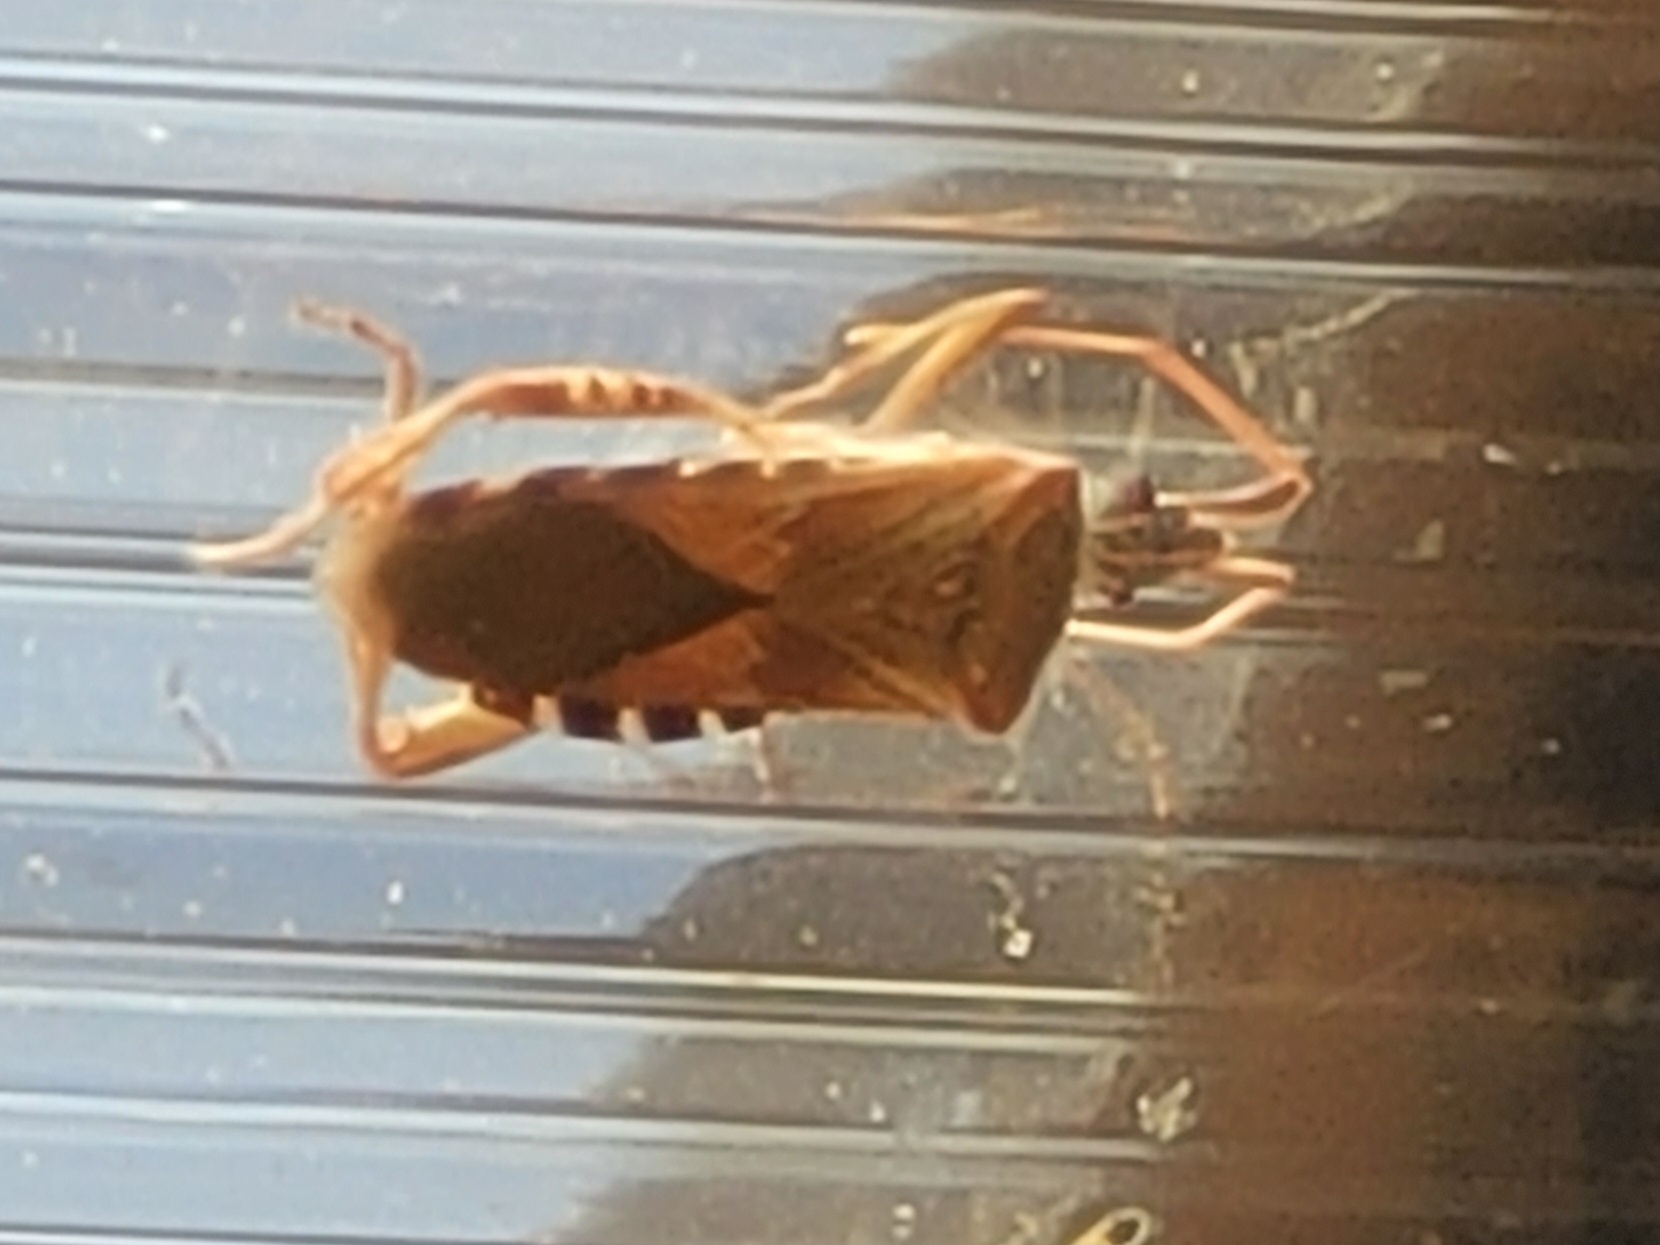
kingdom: Animalia
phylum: Arthropoda
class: Insecta
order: Hemiptera
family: Coreidae
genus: Leptoglossus
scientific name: Leptoglossus occidentalis
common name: Western conifer-seed bug
